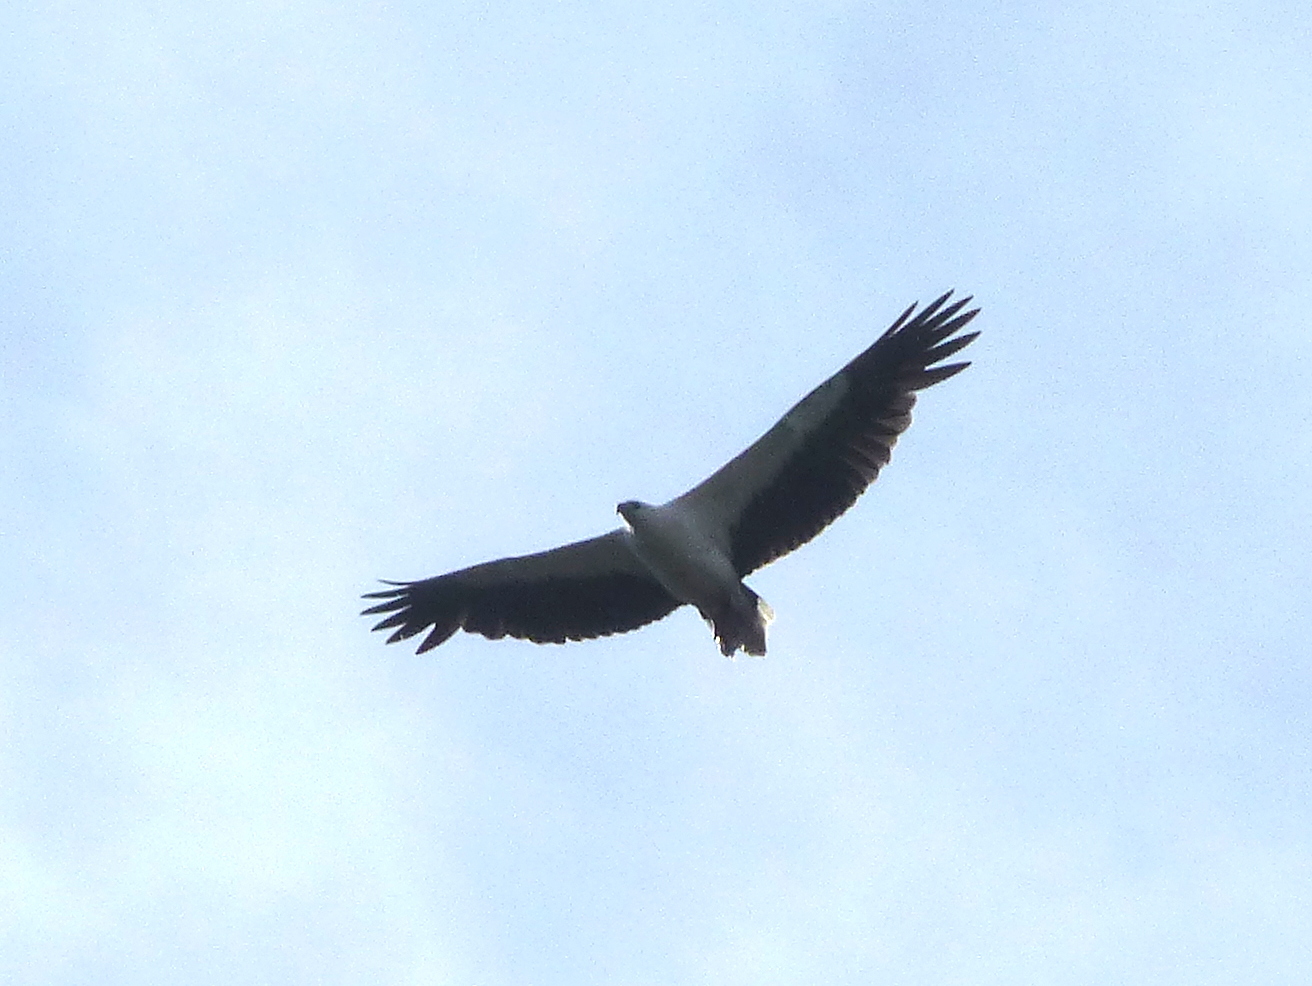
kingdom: Animalia
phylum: Chordata
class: Aves
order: Accipitriformes
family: Accipitridae
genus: Haliaeetus
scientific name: Haliaeetus leucogaster
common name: White-bellied sea eagle
